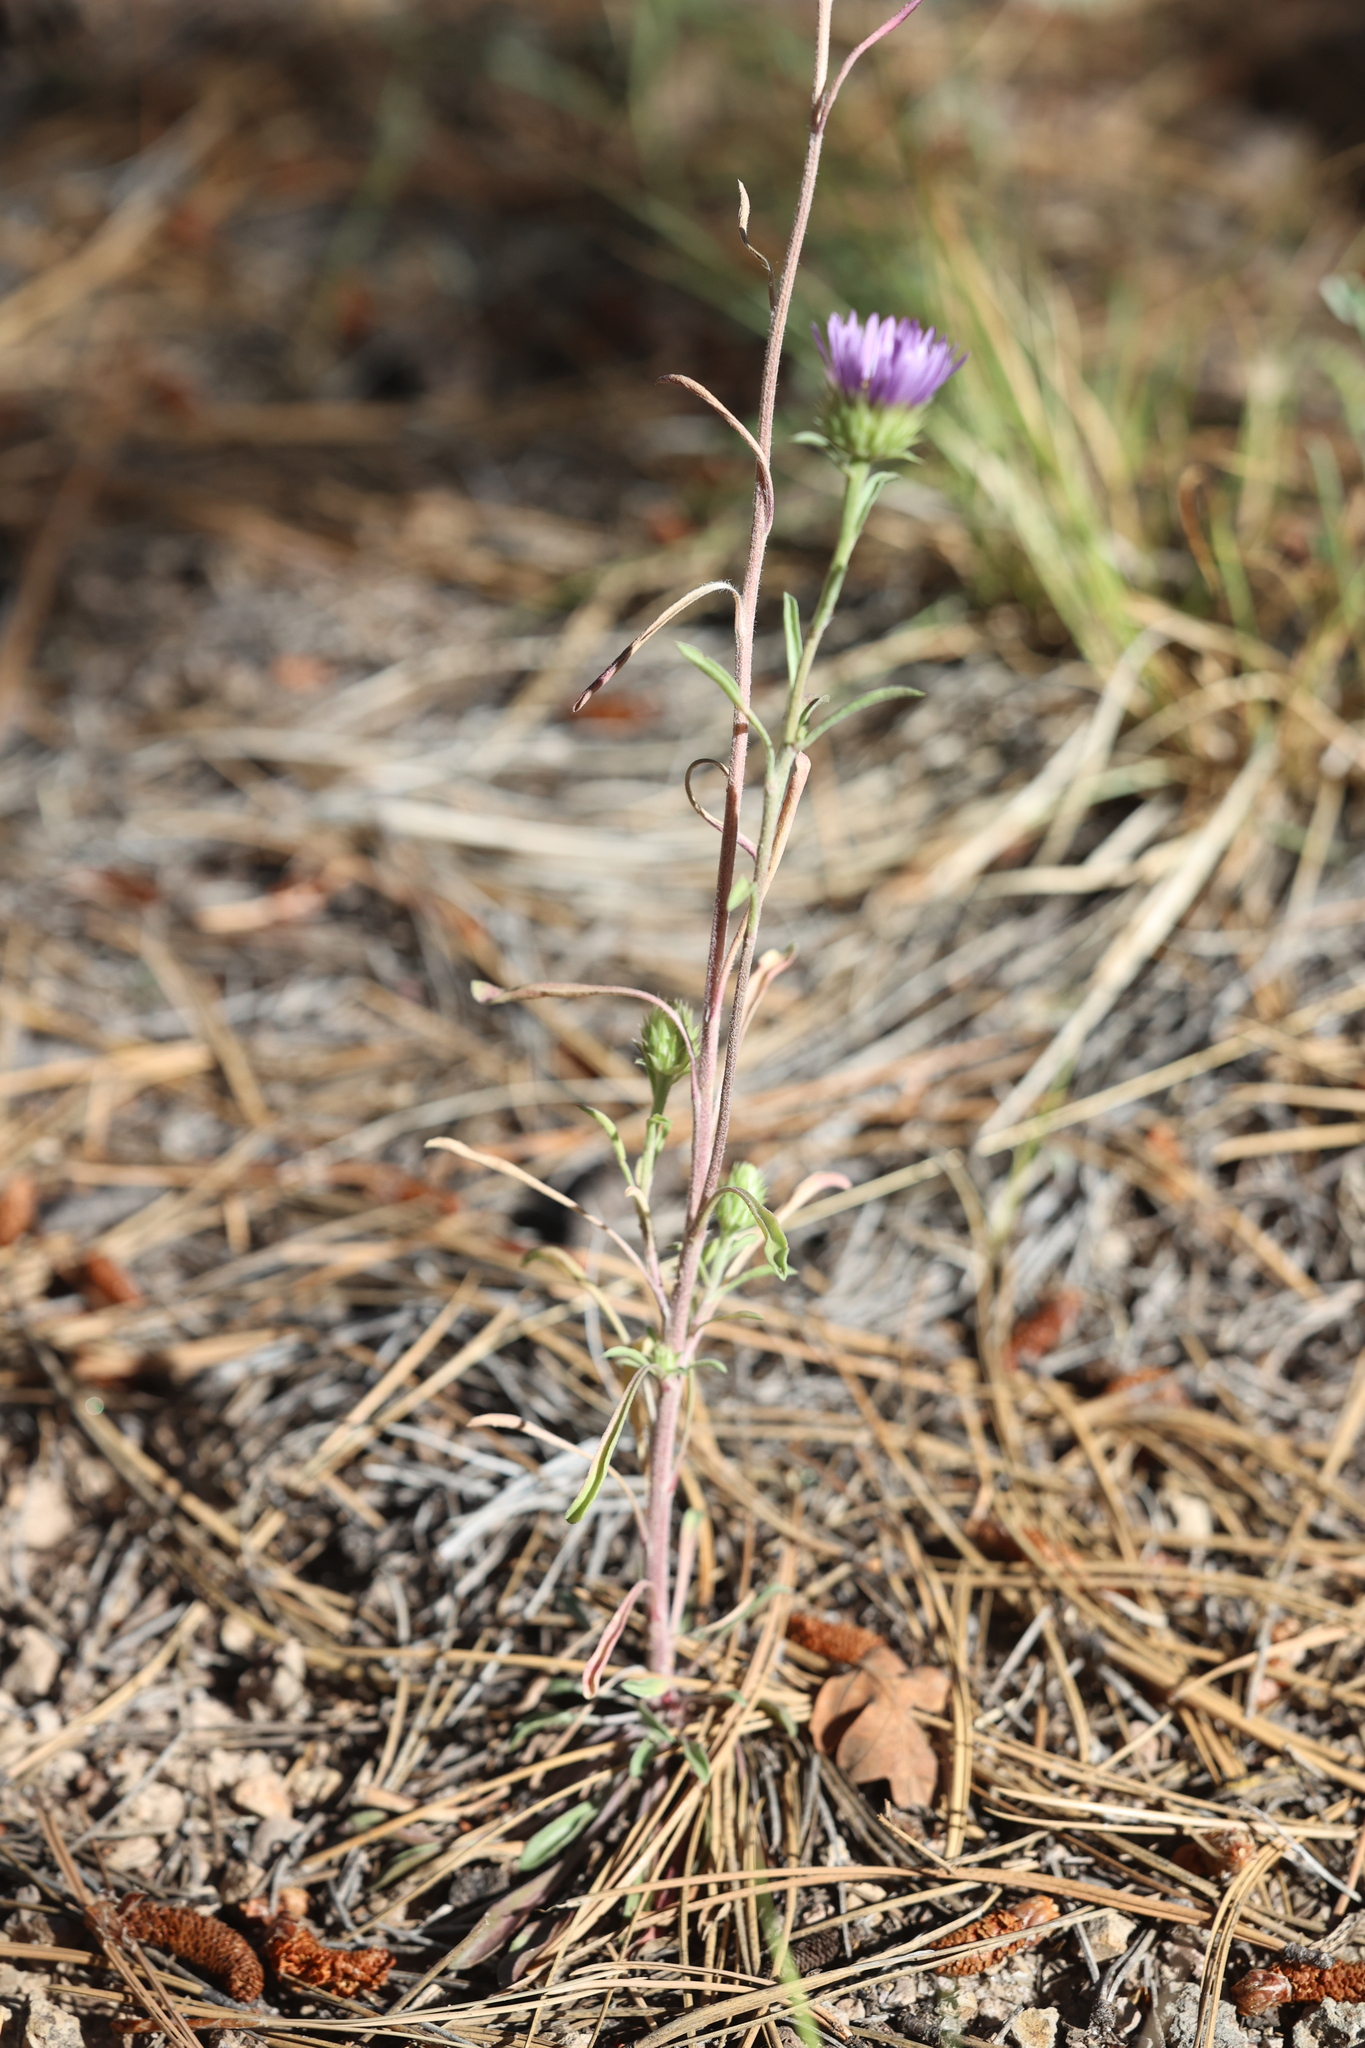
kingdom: Plantae
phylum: Tracheophyta
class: Magnoliopsida
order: Asterales
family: Asteraceae
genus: Townsendia
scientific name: Townsendia eximia
